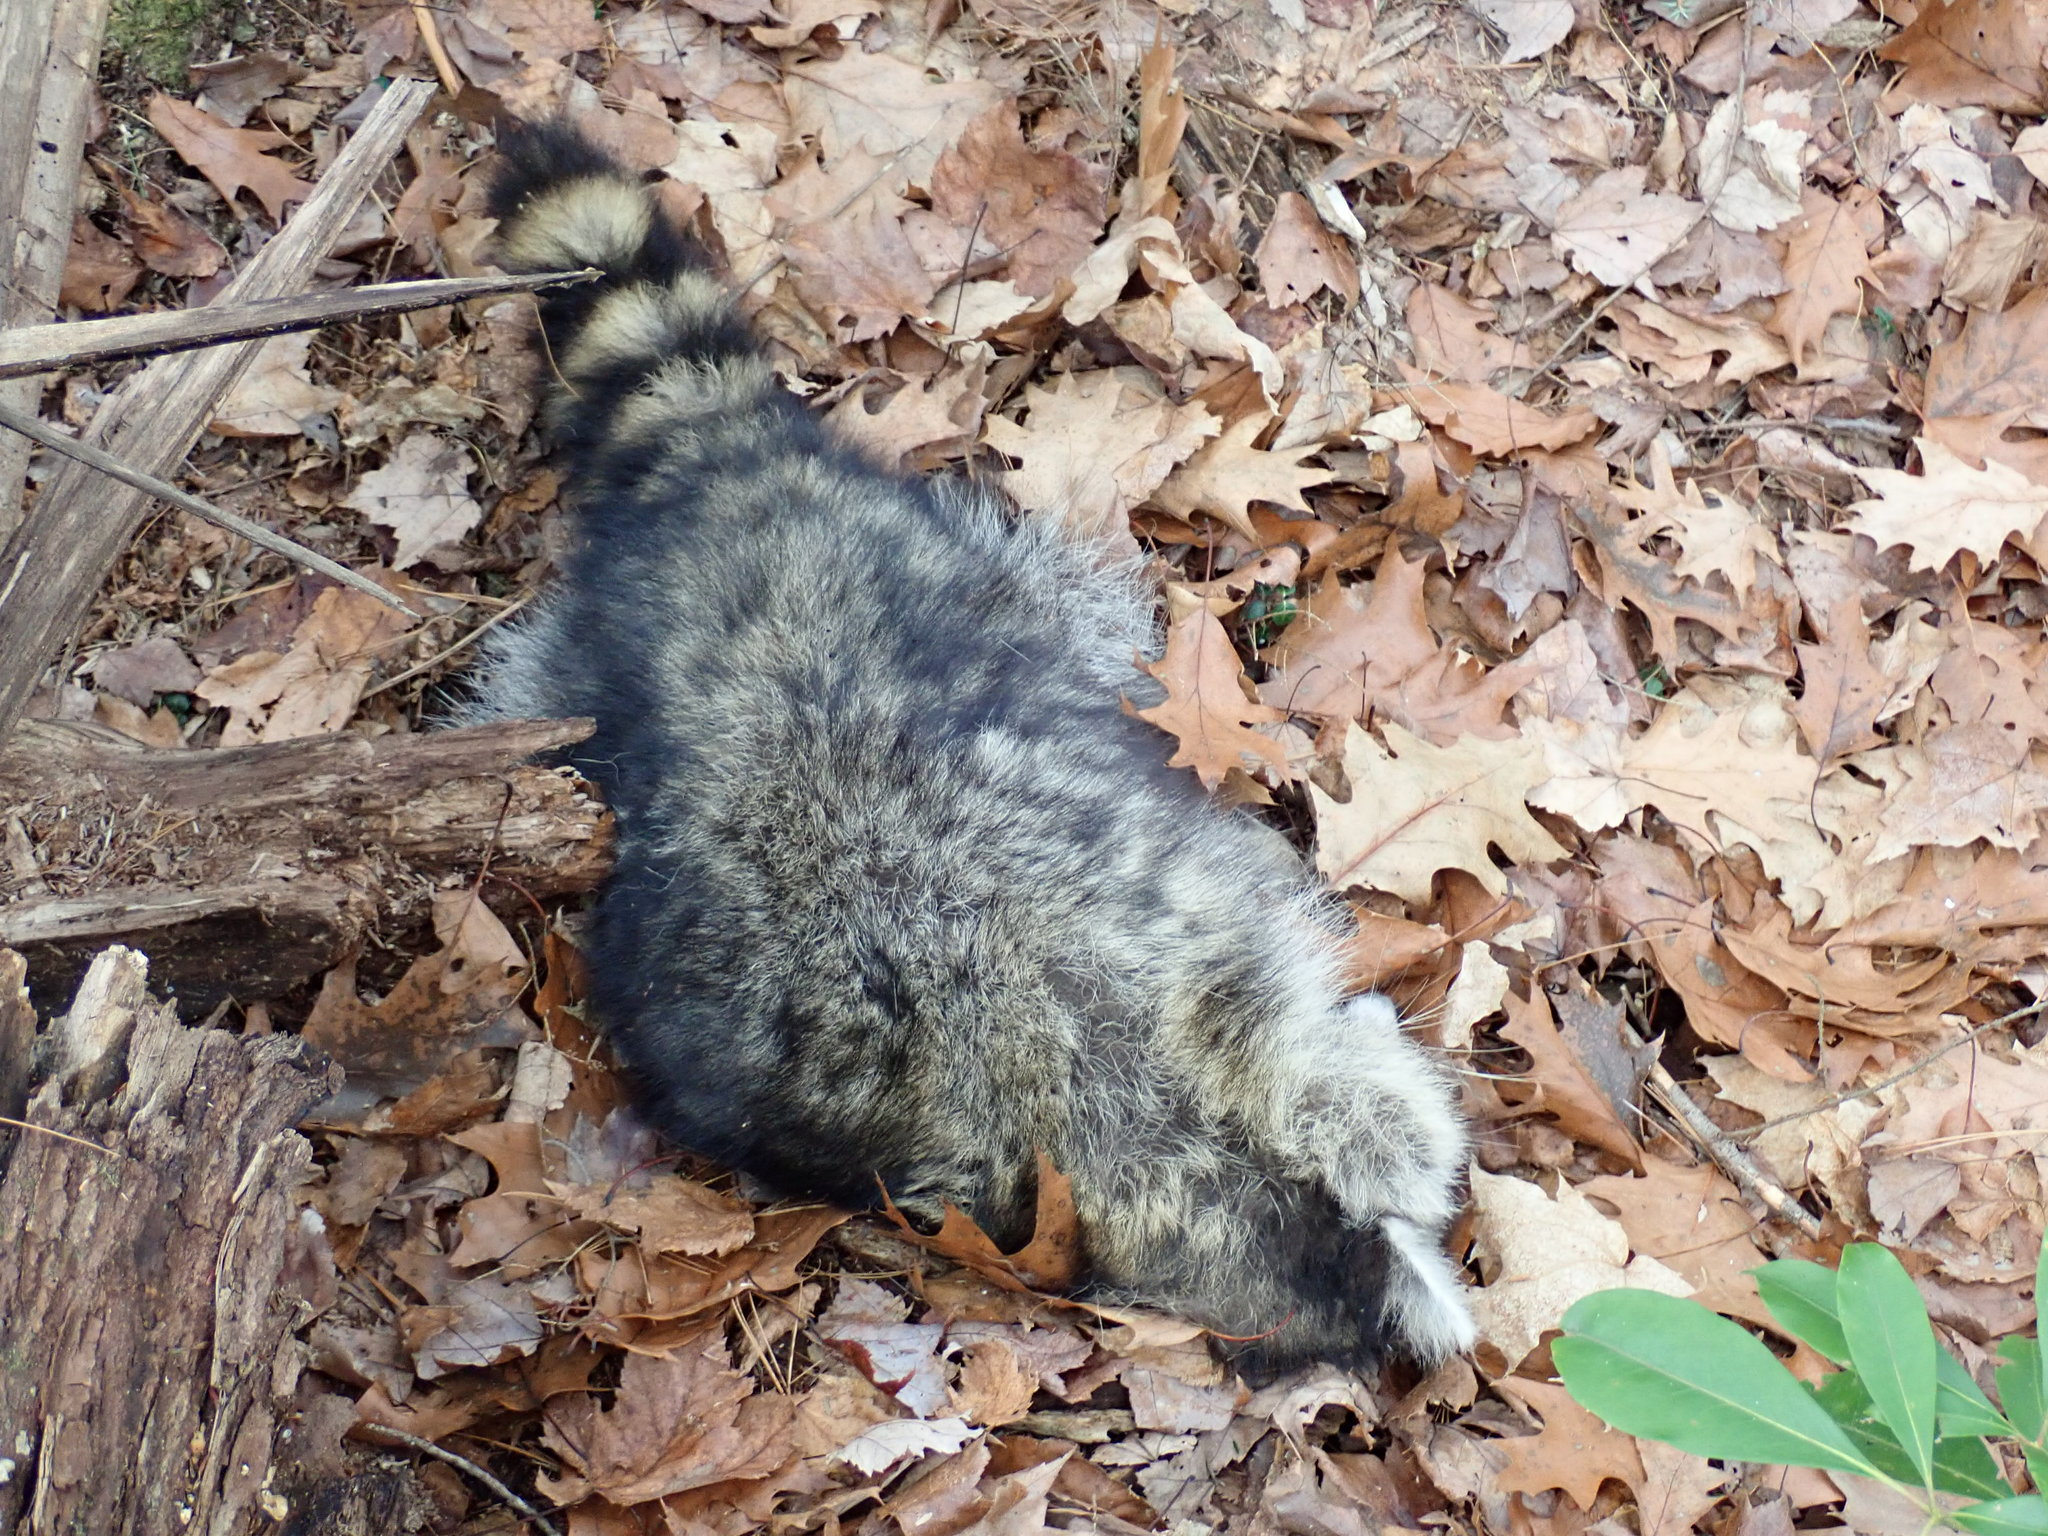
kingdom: Animalia
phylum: Chordata
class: Mammalia
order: Carnivora
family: Procyonidae
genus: Procyon
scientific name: Procyon lotor
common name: Raccoon
